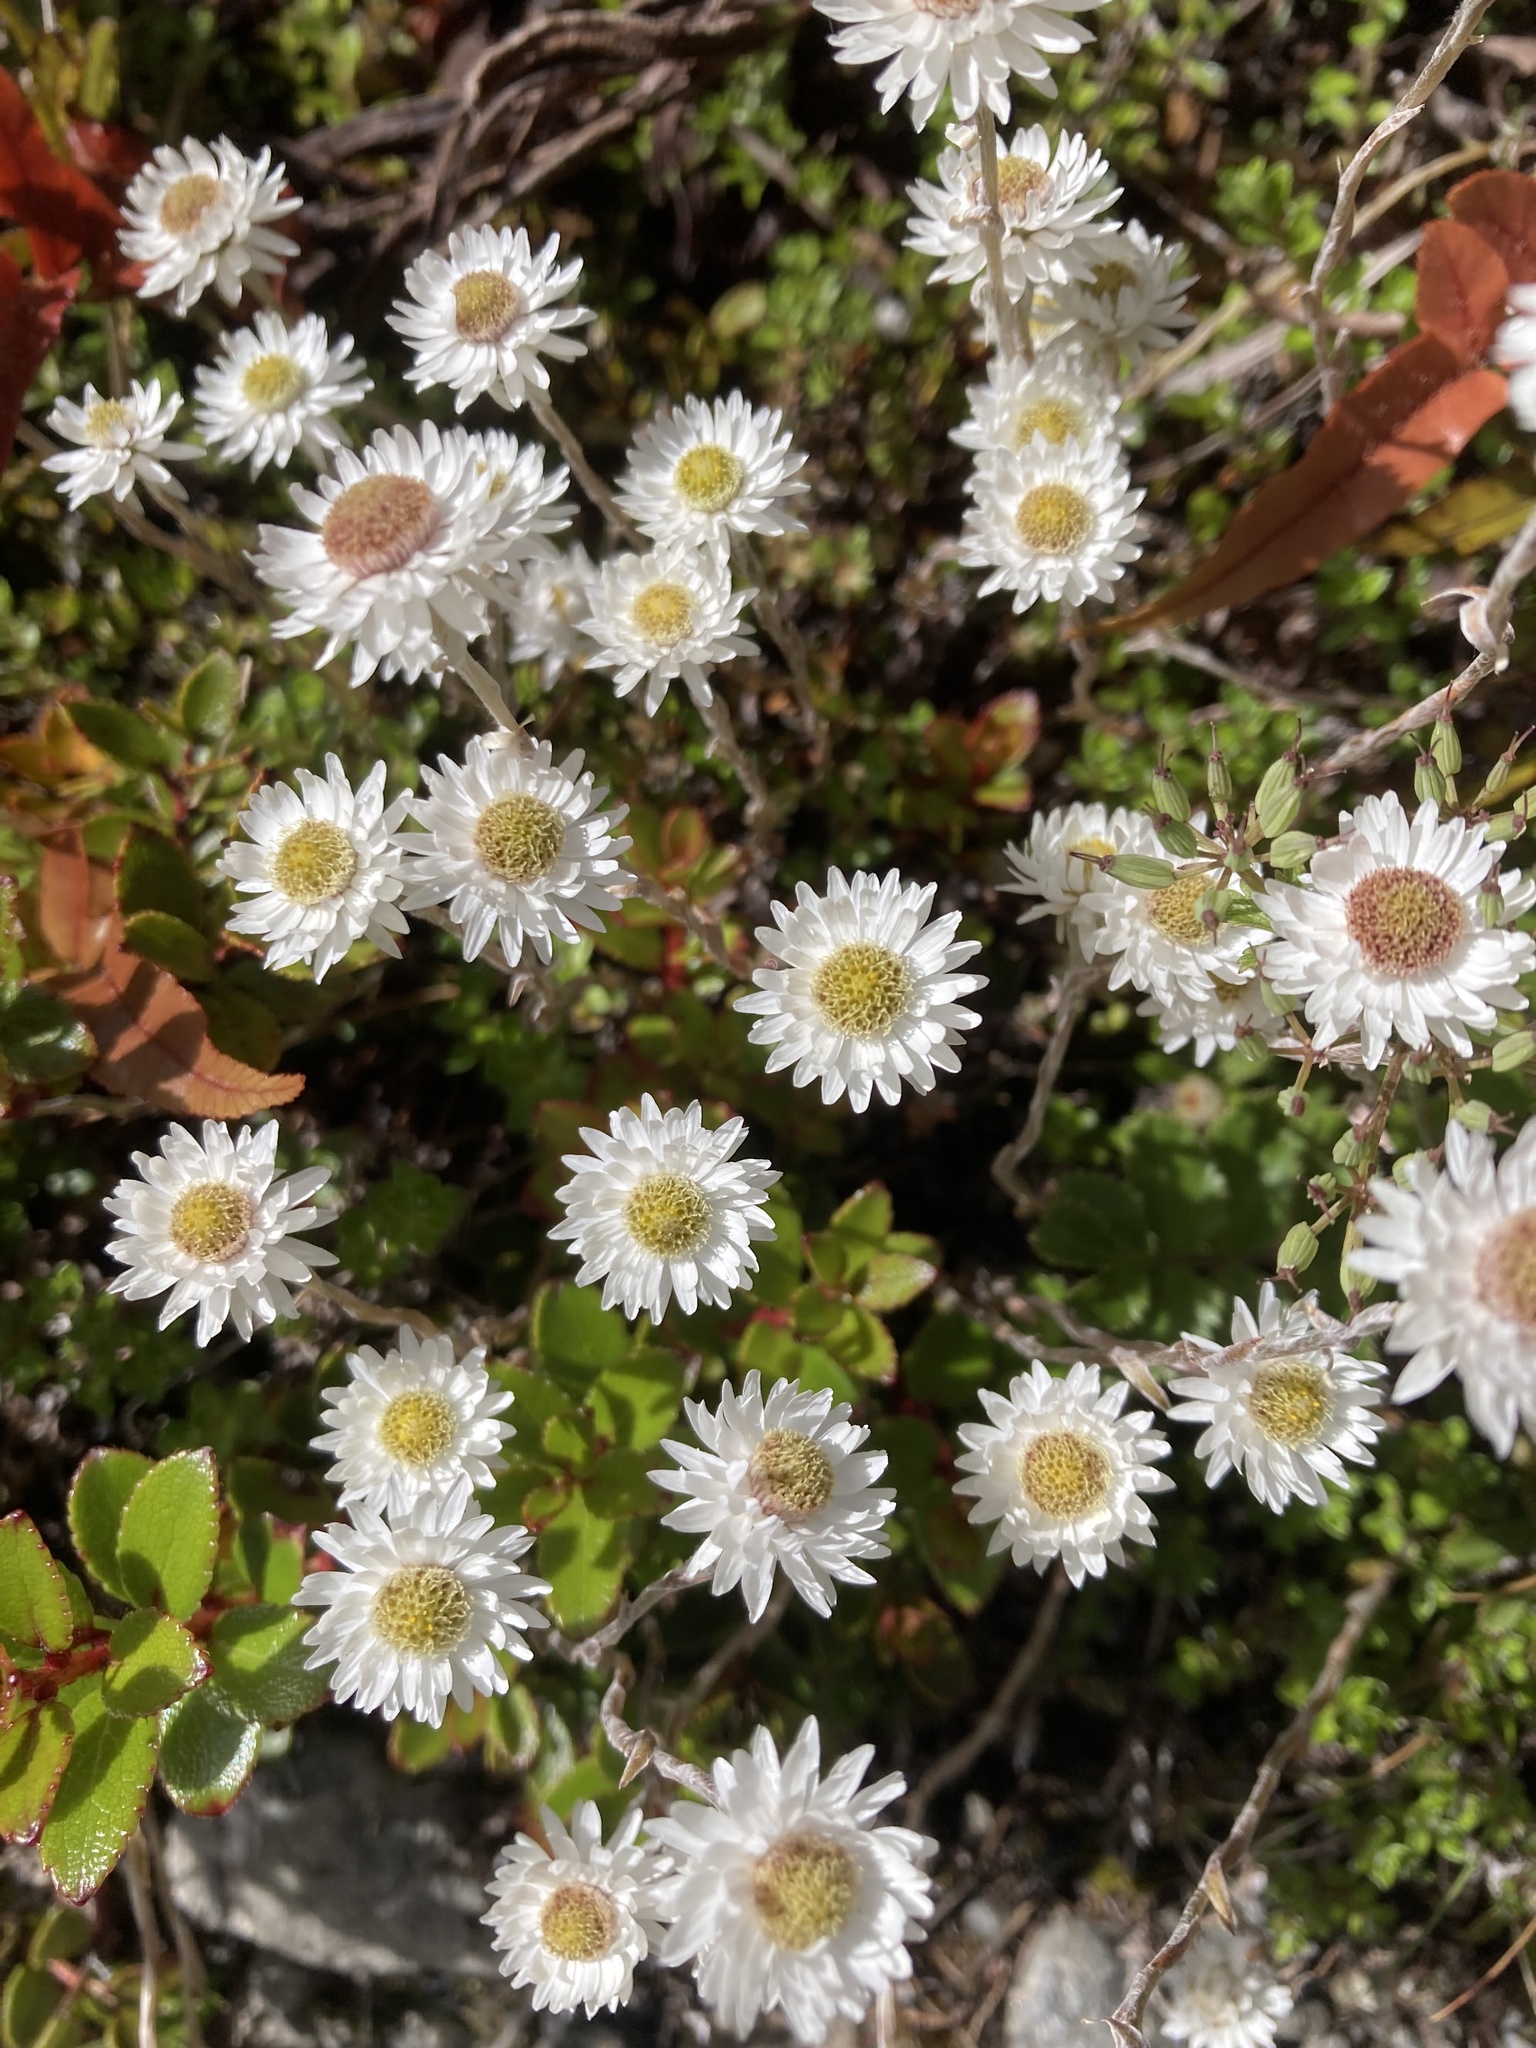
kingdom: Plantae
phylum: Tracheophyta
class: Magnoliopsida
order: Asterales
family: Asteraceae
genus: Anaphalioides
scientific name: Anaphalioides bellidioides
